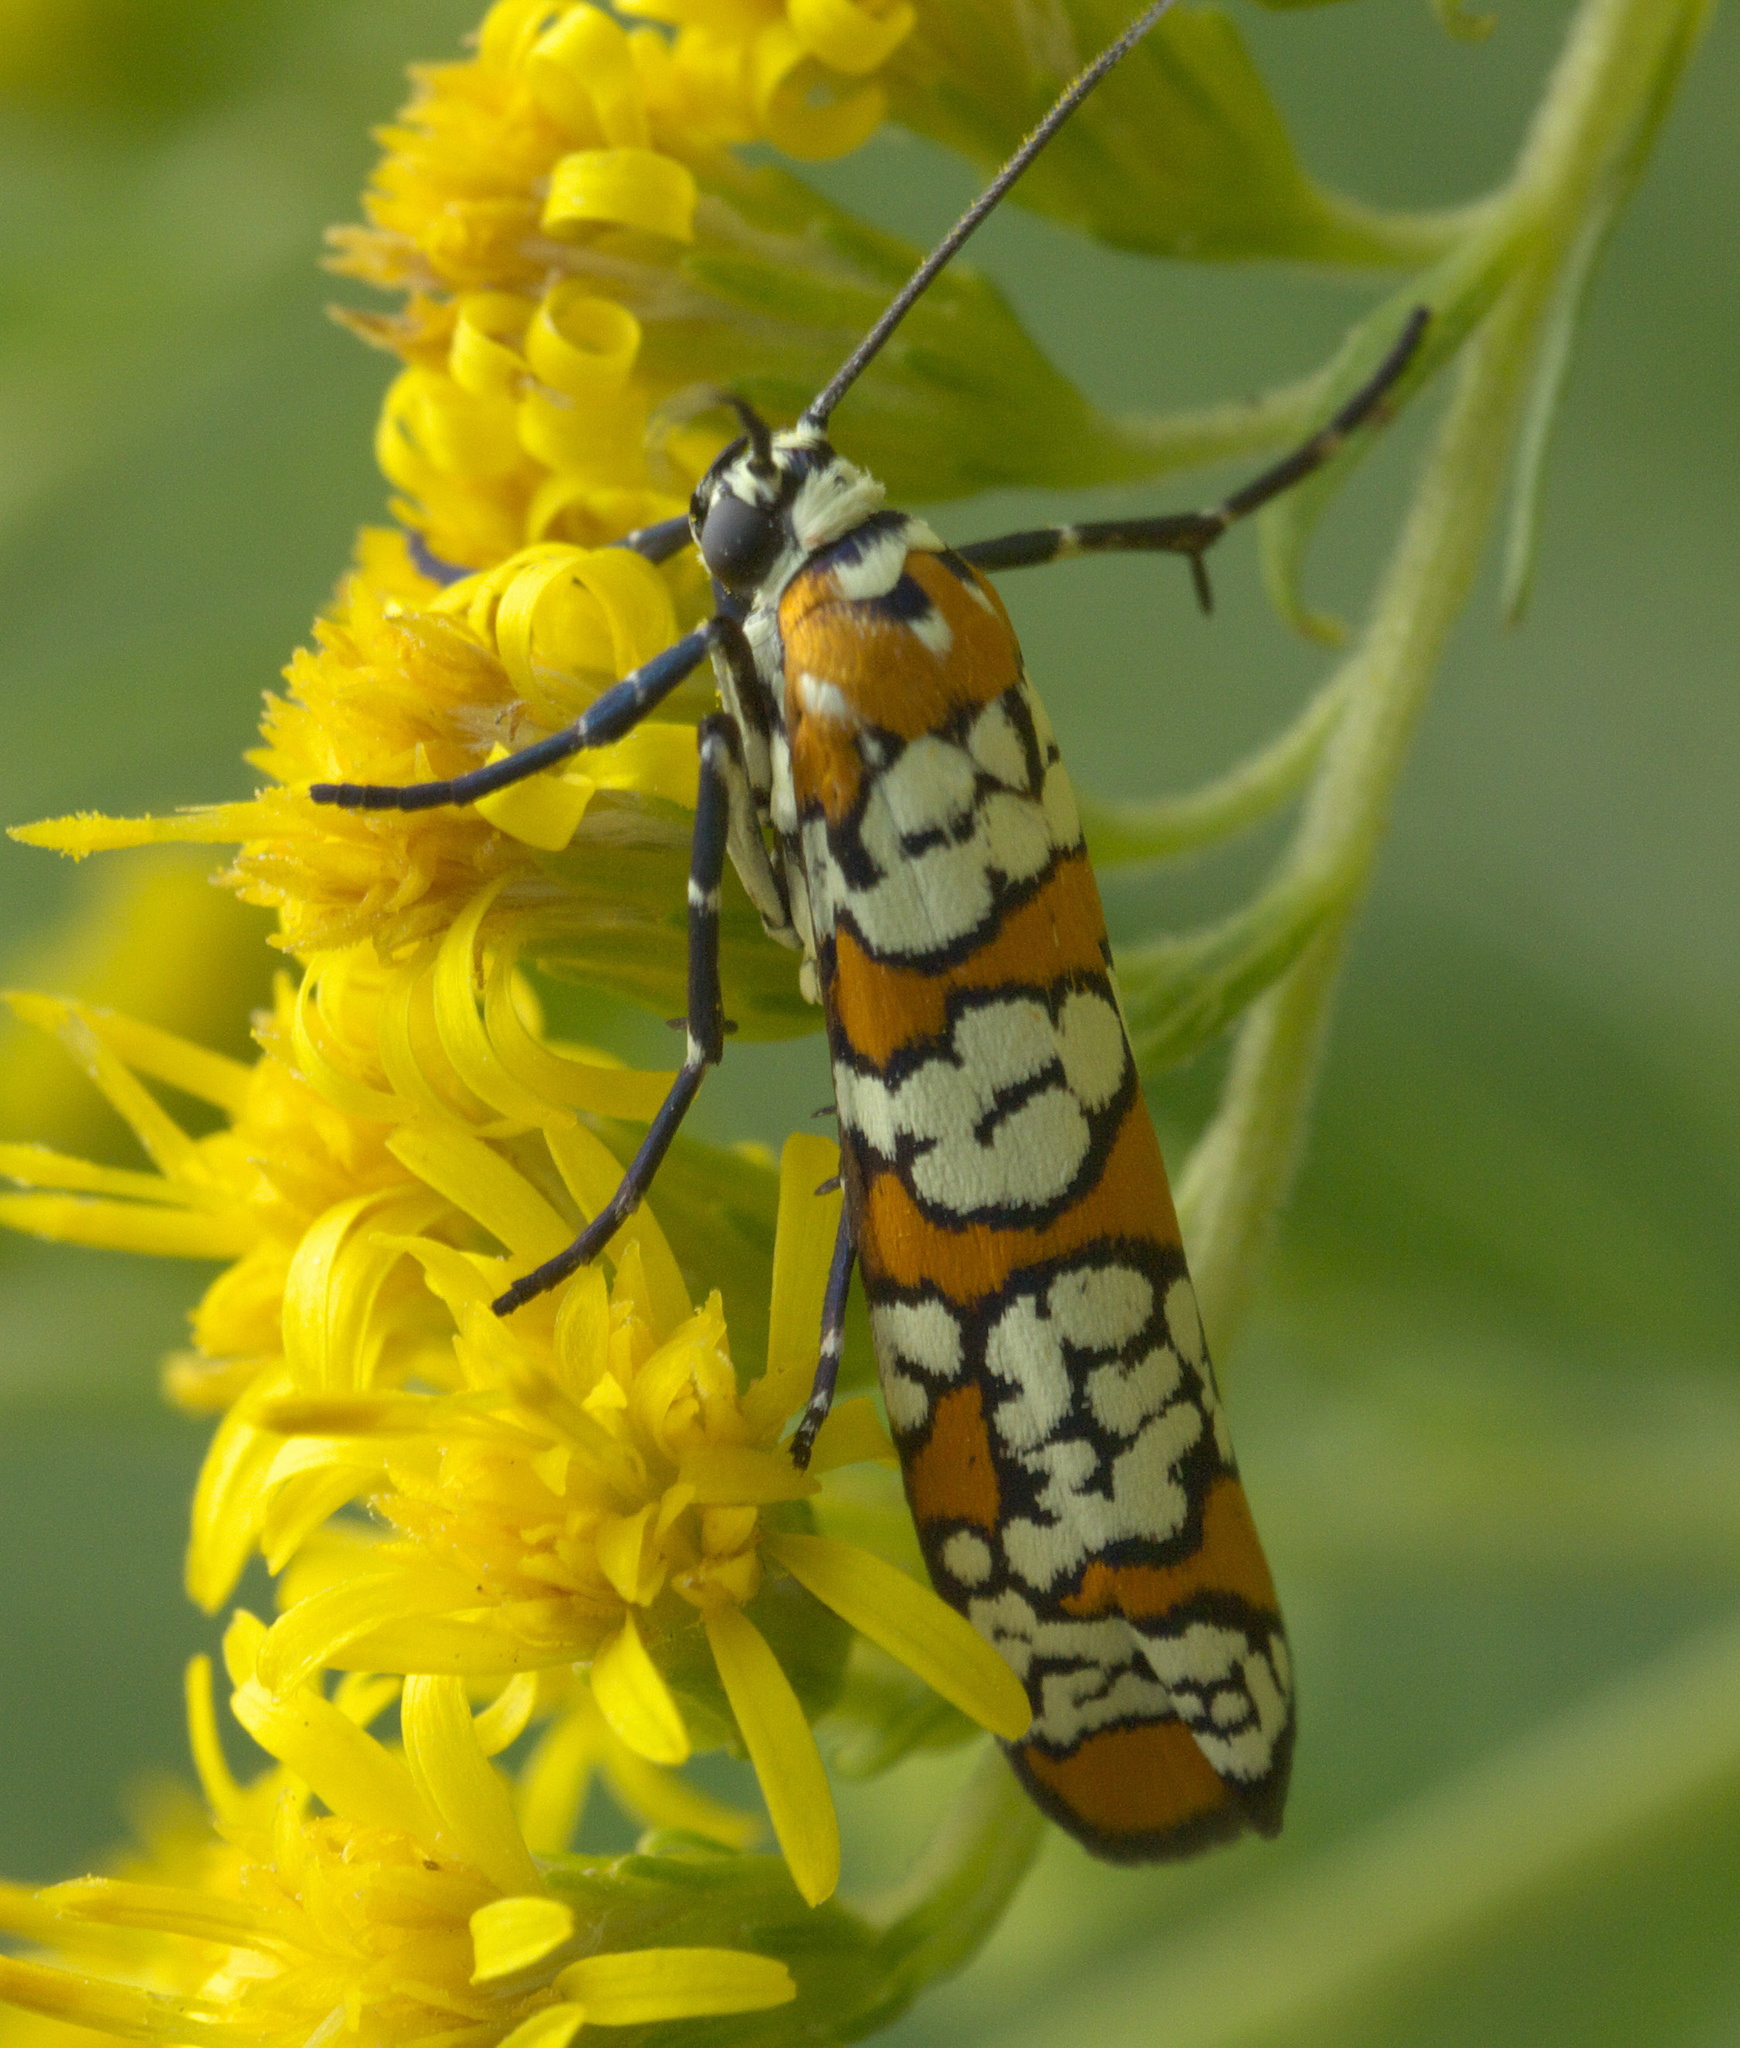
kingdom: Animalia
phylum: Arthropoda
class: Insecta
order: Lepidoptera
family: Attevidae
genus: Atteva
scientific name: Atteva punctella
